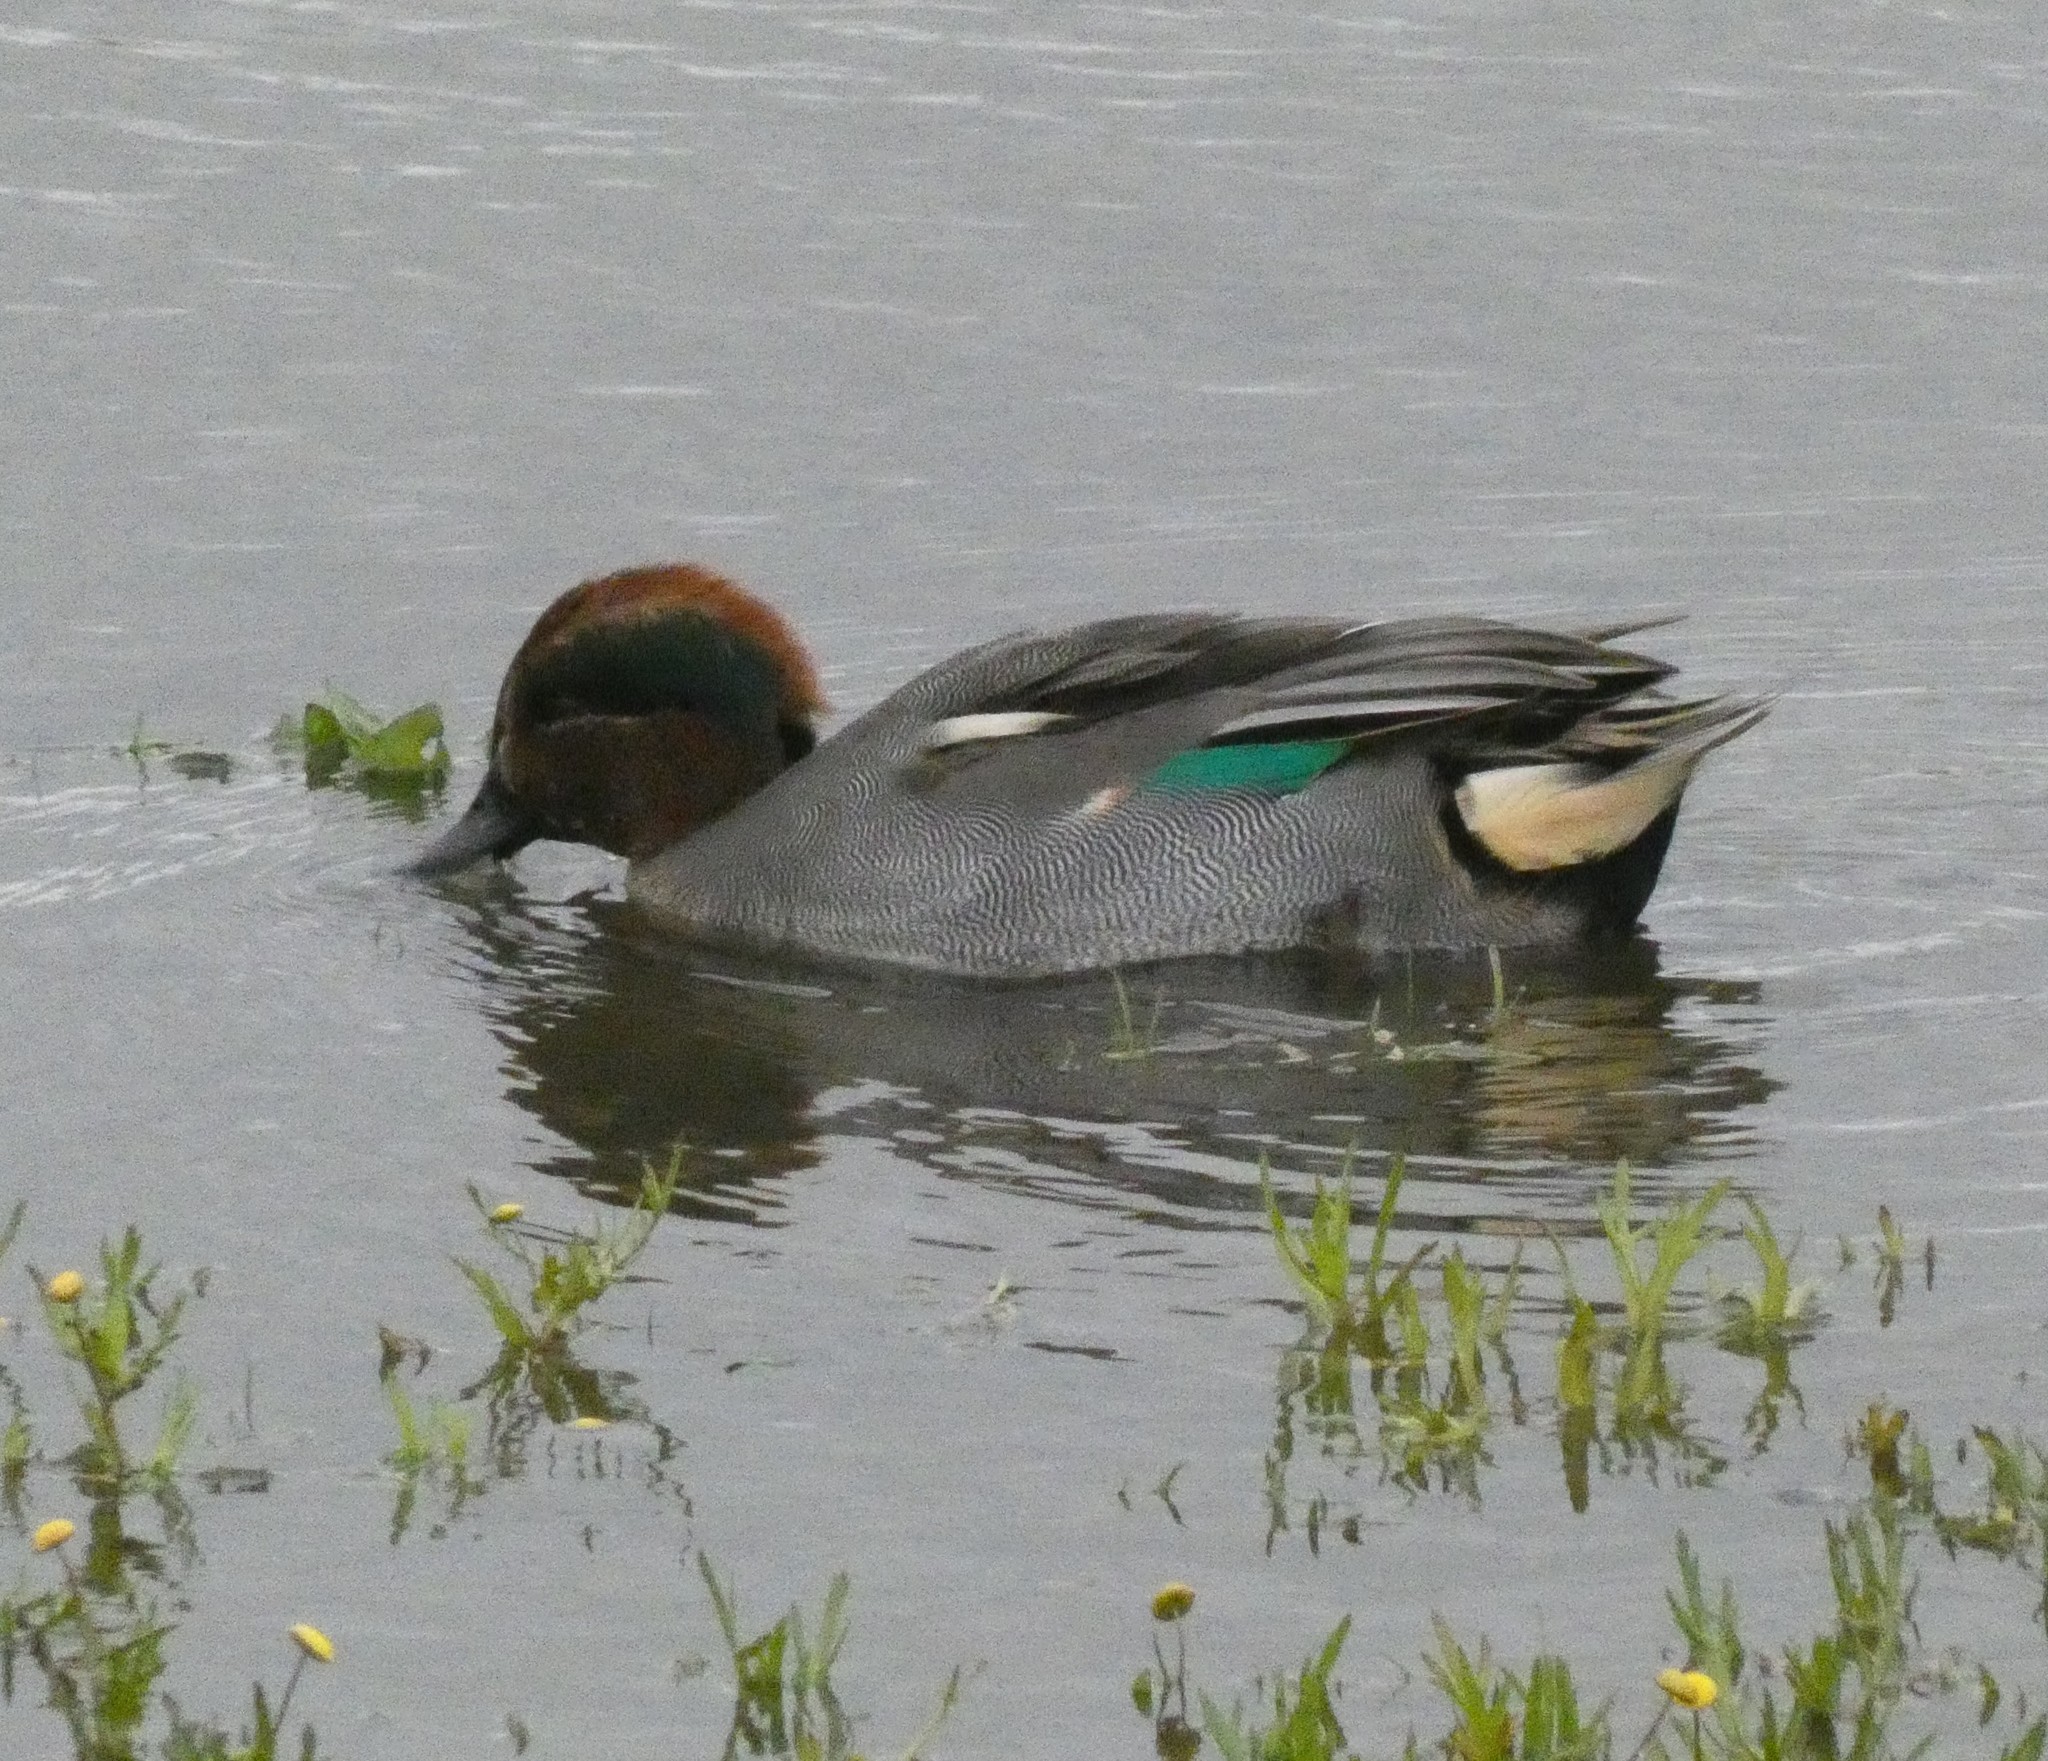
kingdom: Animalia
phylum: Chordata
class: Aves
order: Anseriformes
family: Anatidae
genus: Anas
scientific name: Anas crecca
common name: Eurasian teal
